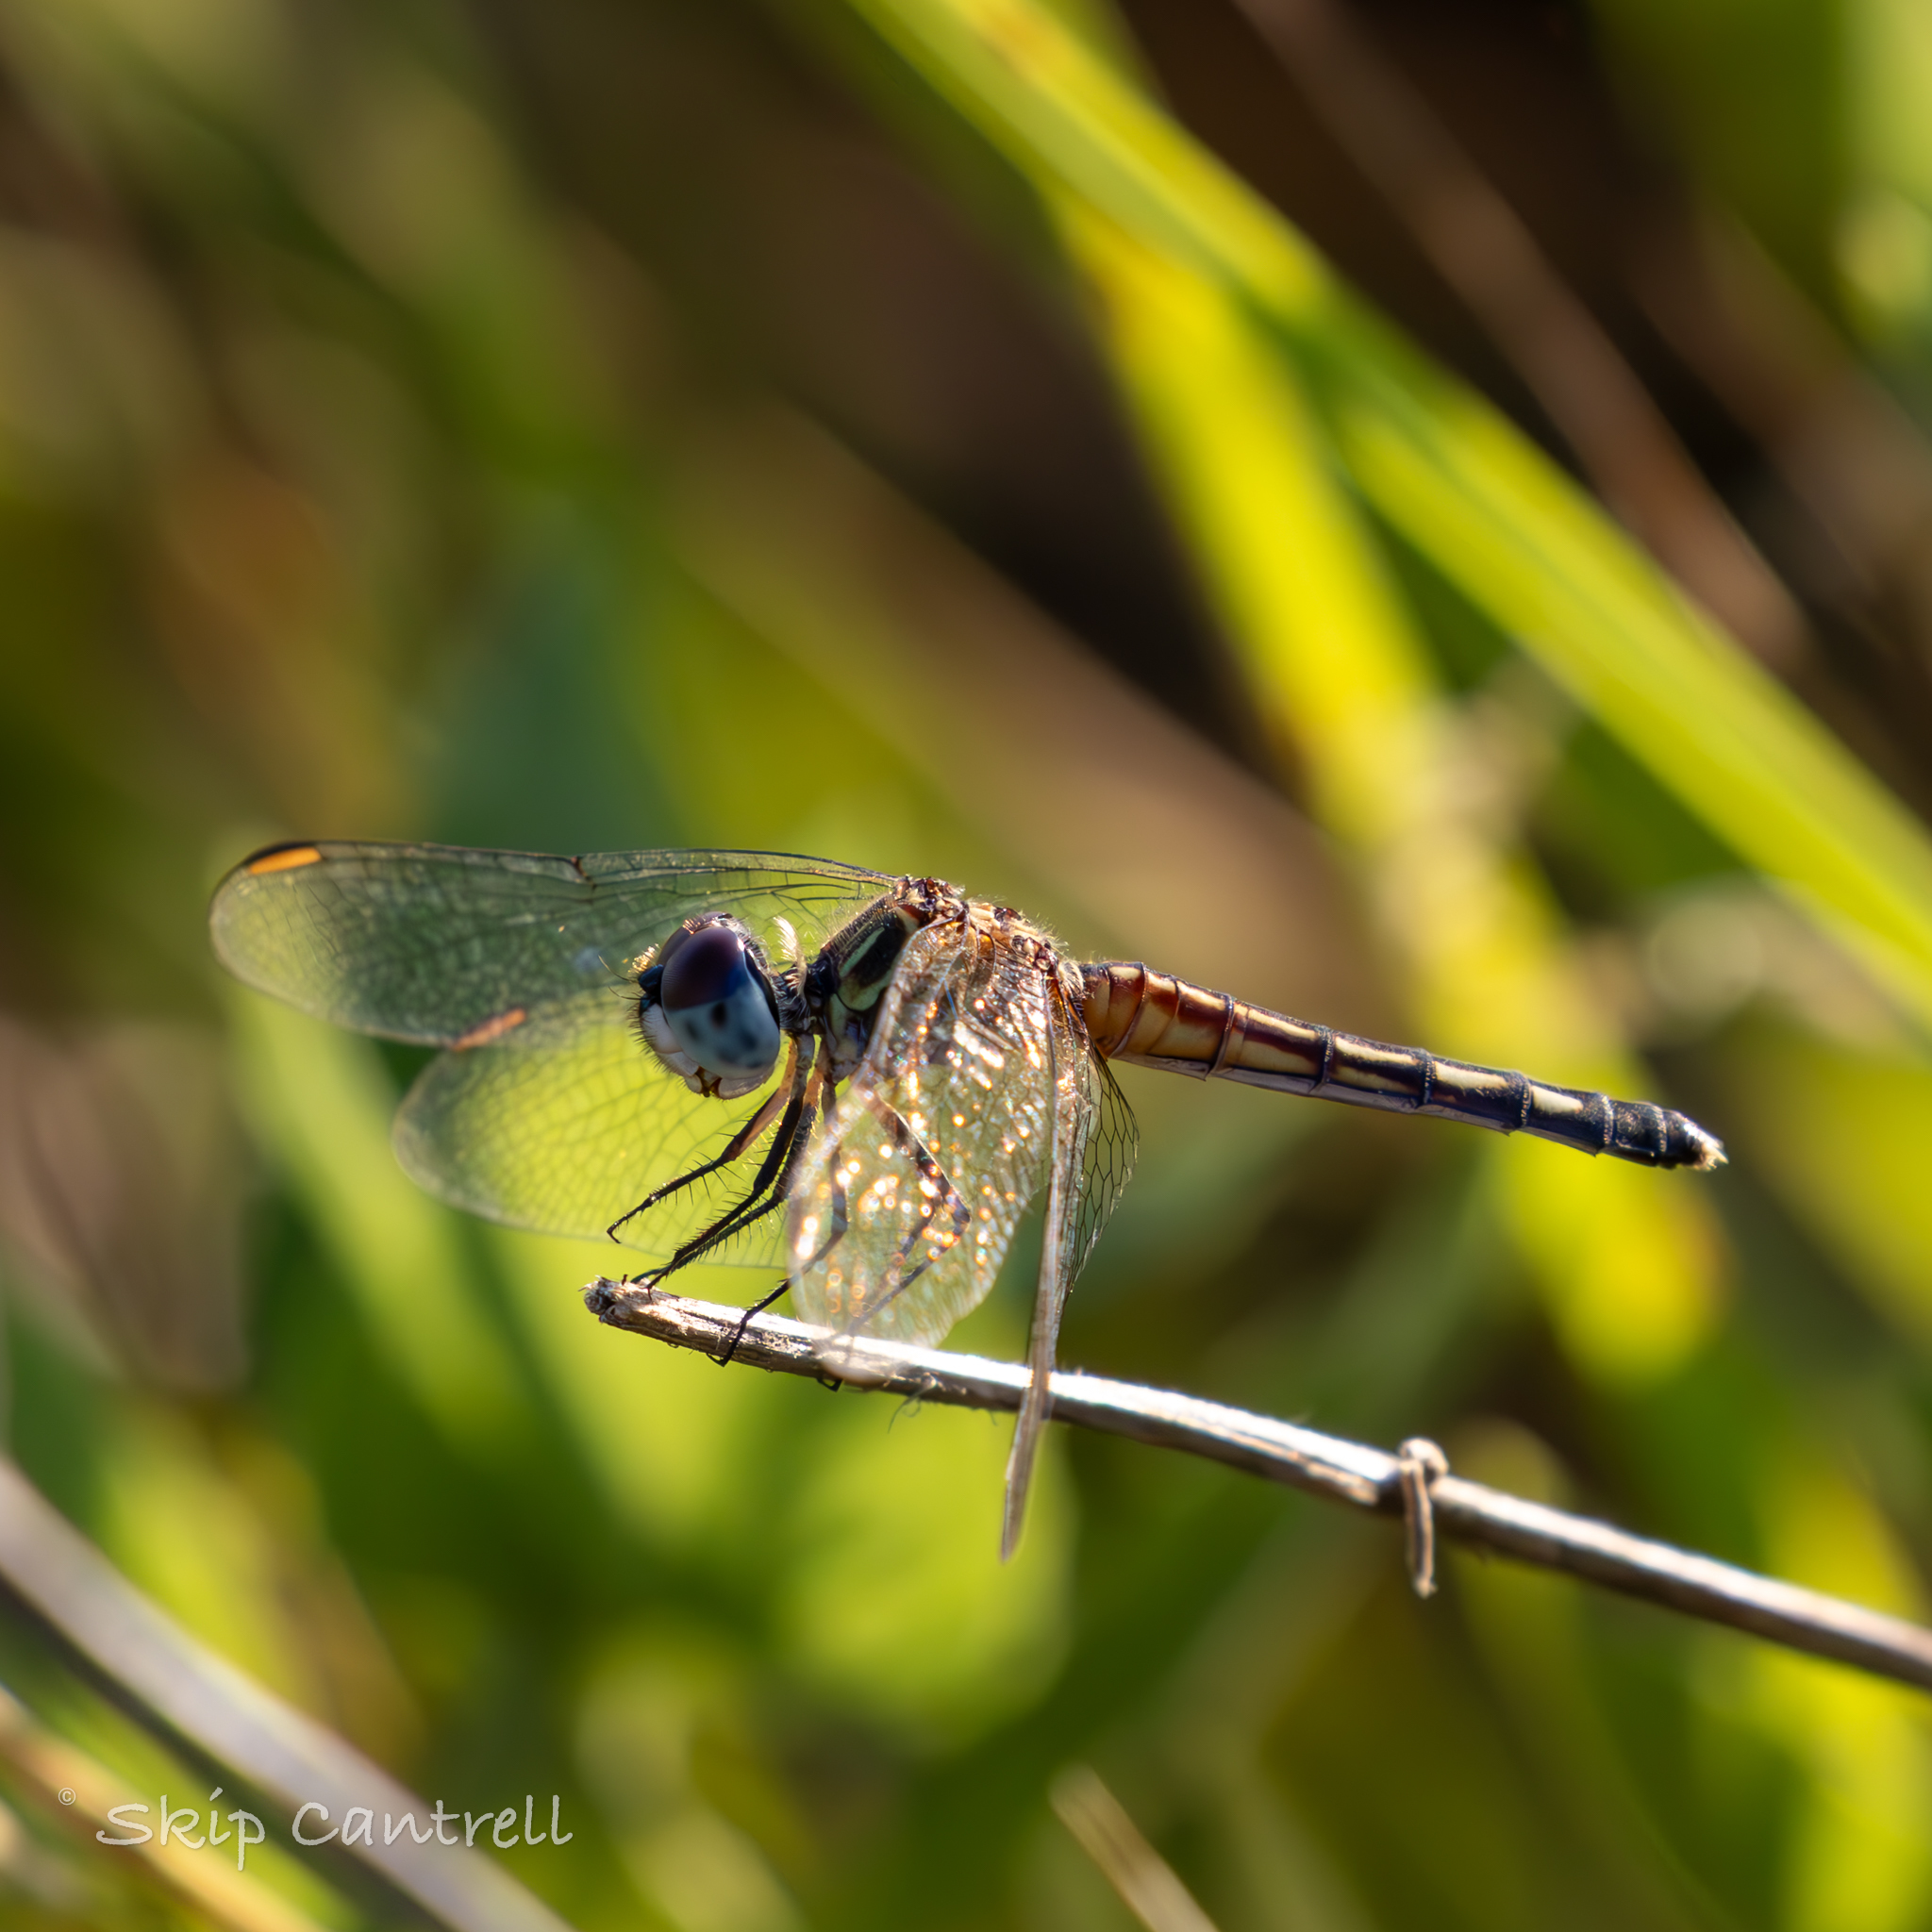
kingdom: Animalia
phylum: Arthropoda
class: Insecta
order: Odonata
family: Libellulidae
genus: Pachydiplax
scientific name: Pachydiplax longipennis
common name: Blue dasher
